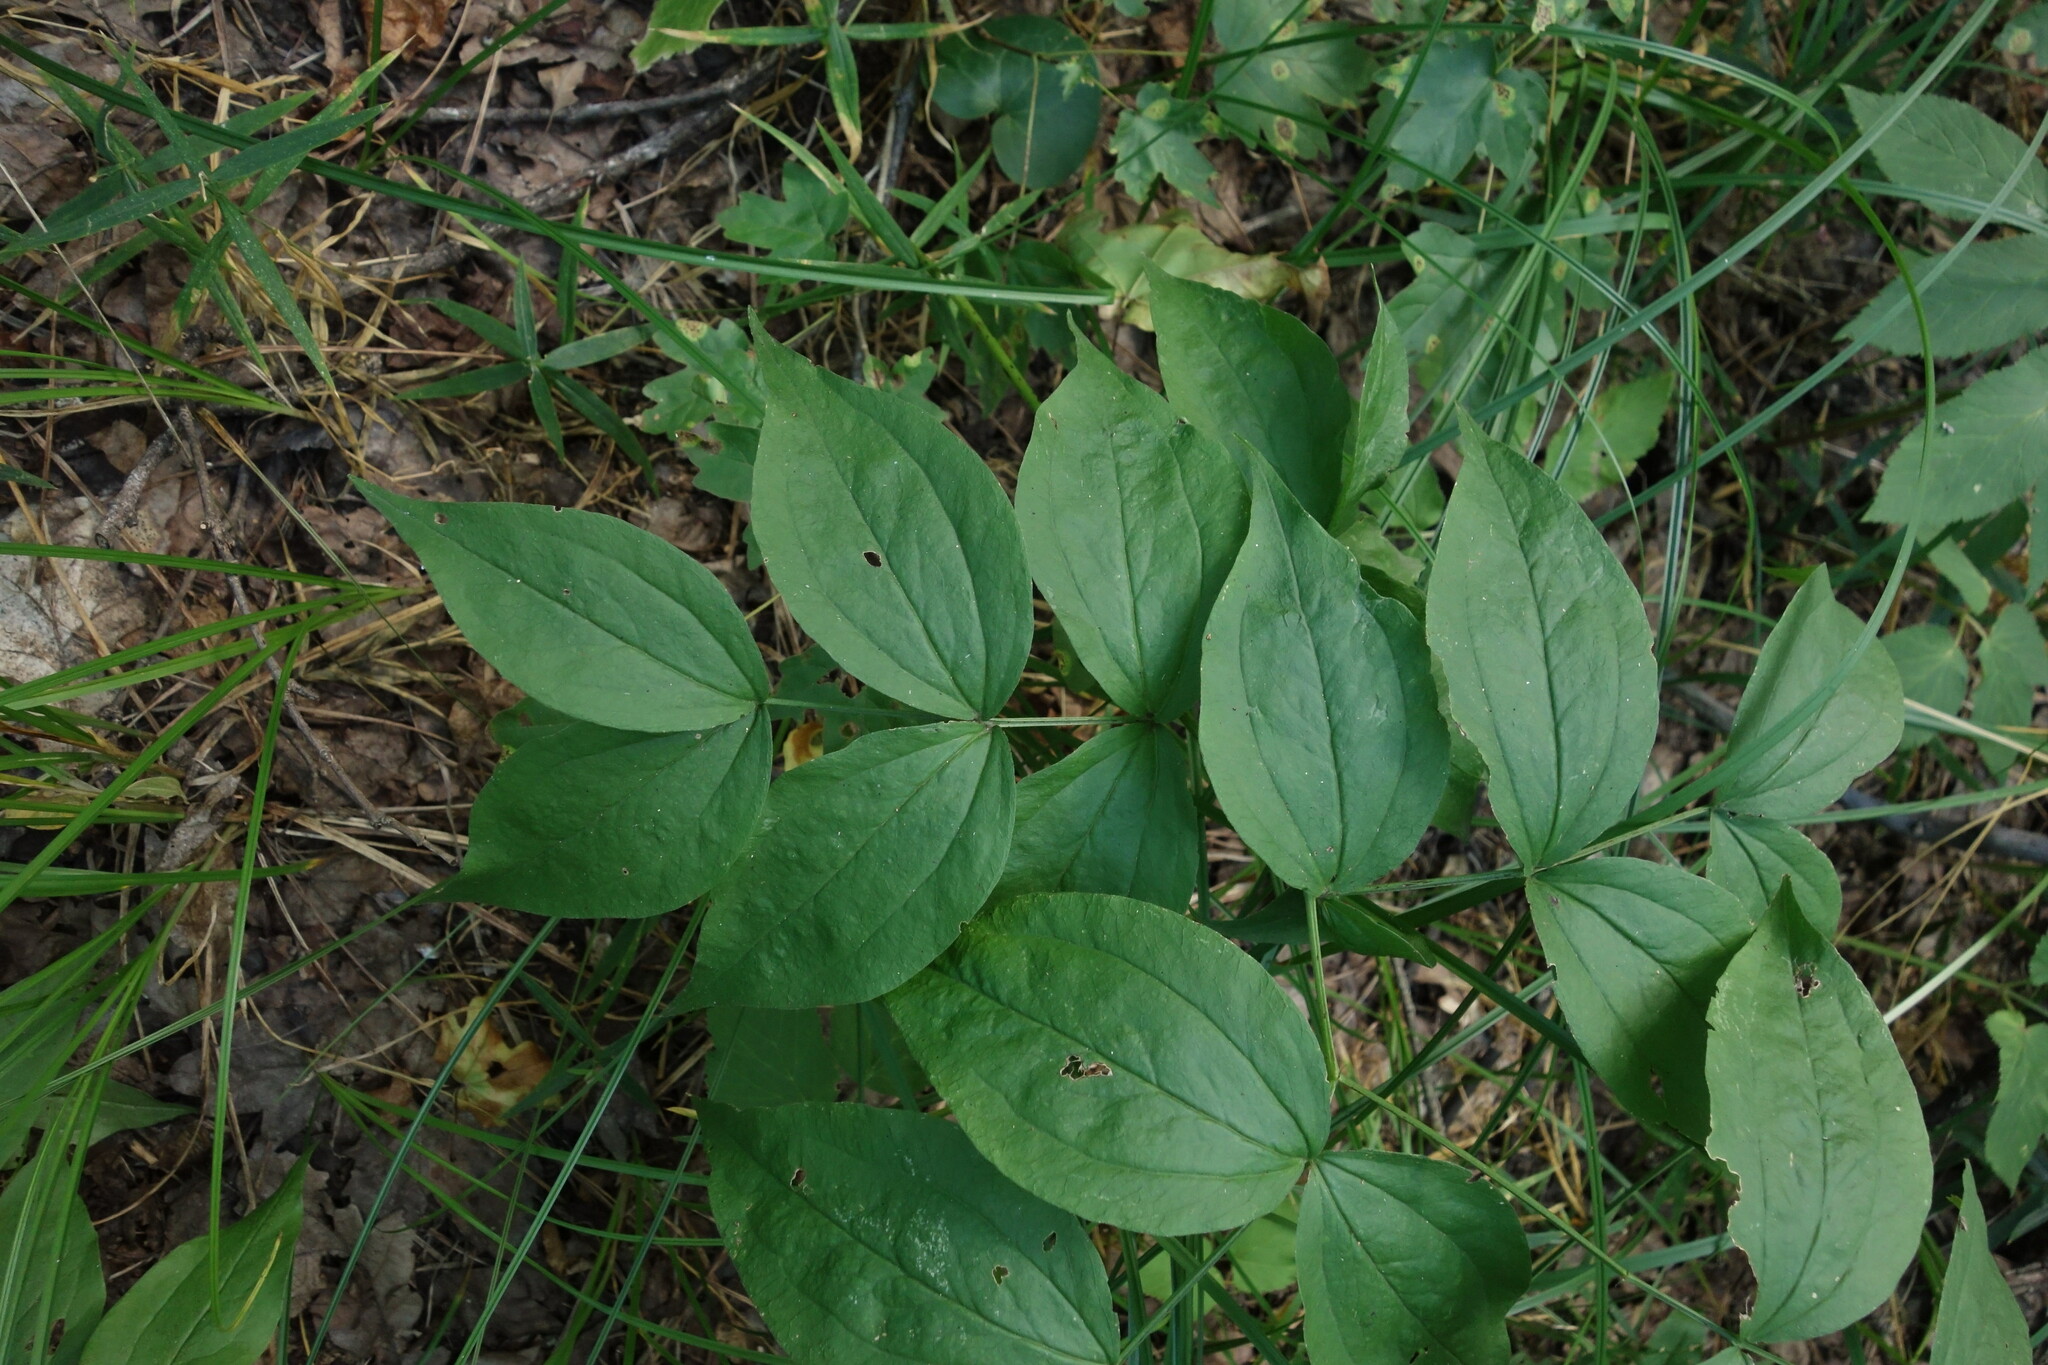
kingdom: Plantae
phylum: Tracheophyta
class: Magnoliopsida
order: Fabales
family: Fabaceae
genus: Lathyrus
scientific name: Lathyrus vernus
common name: Spring pea
